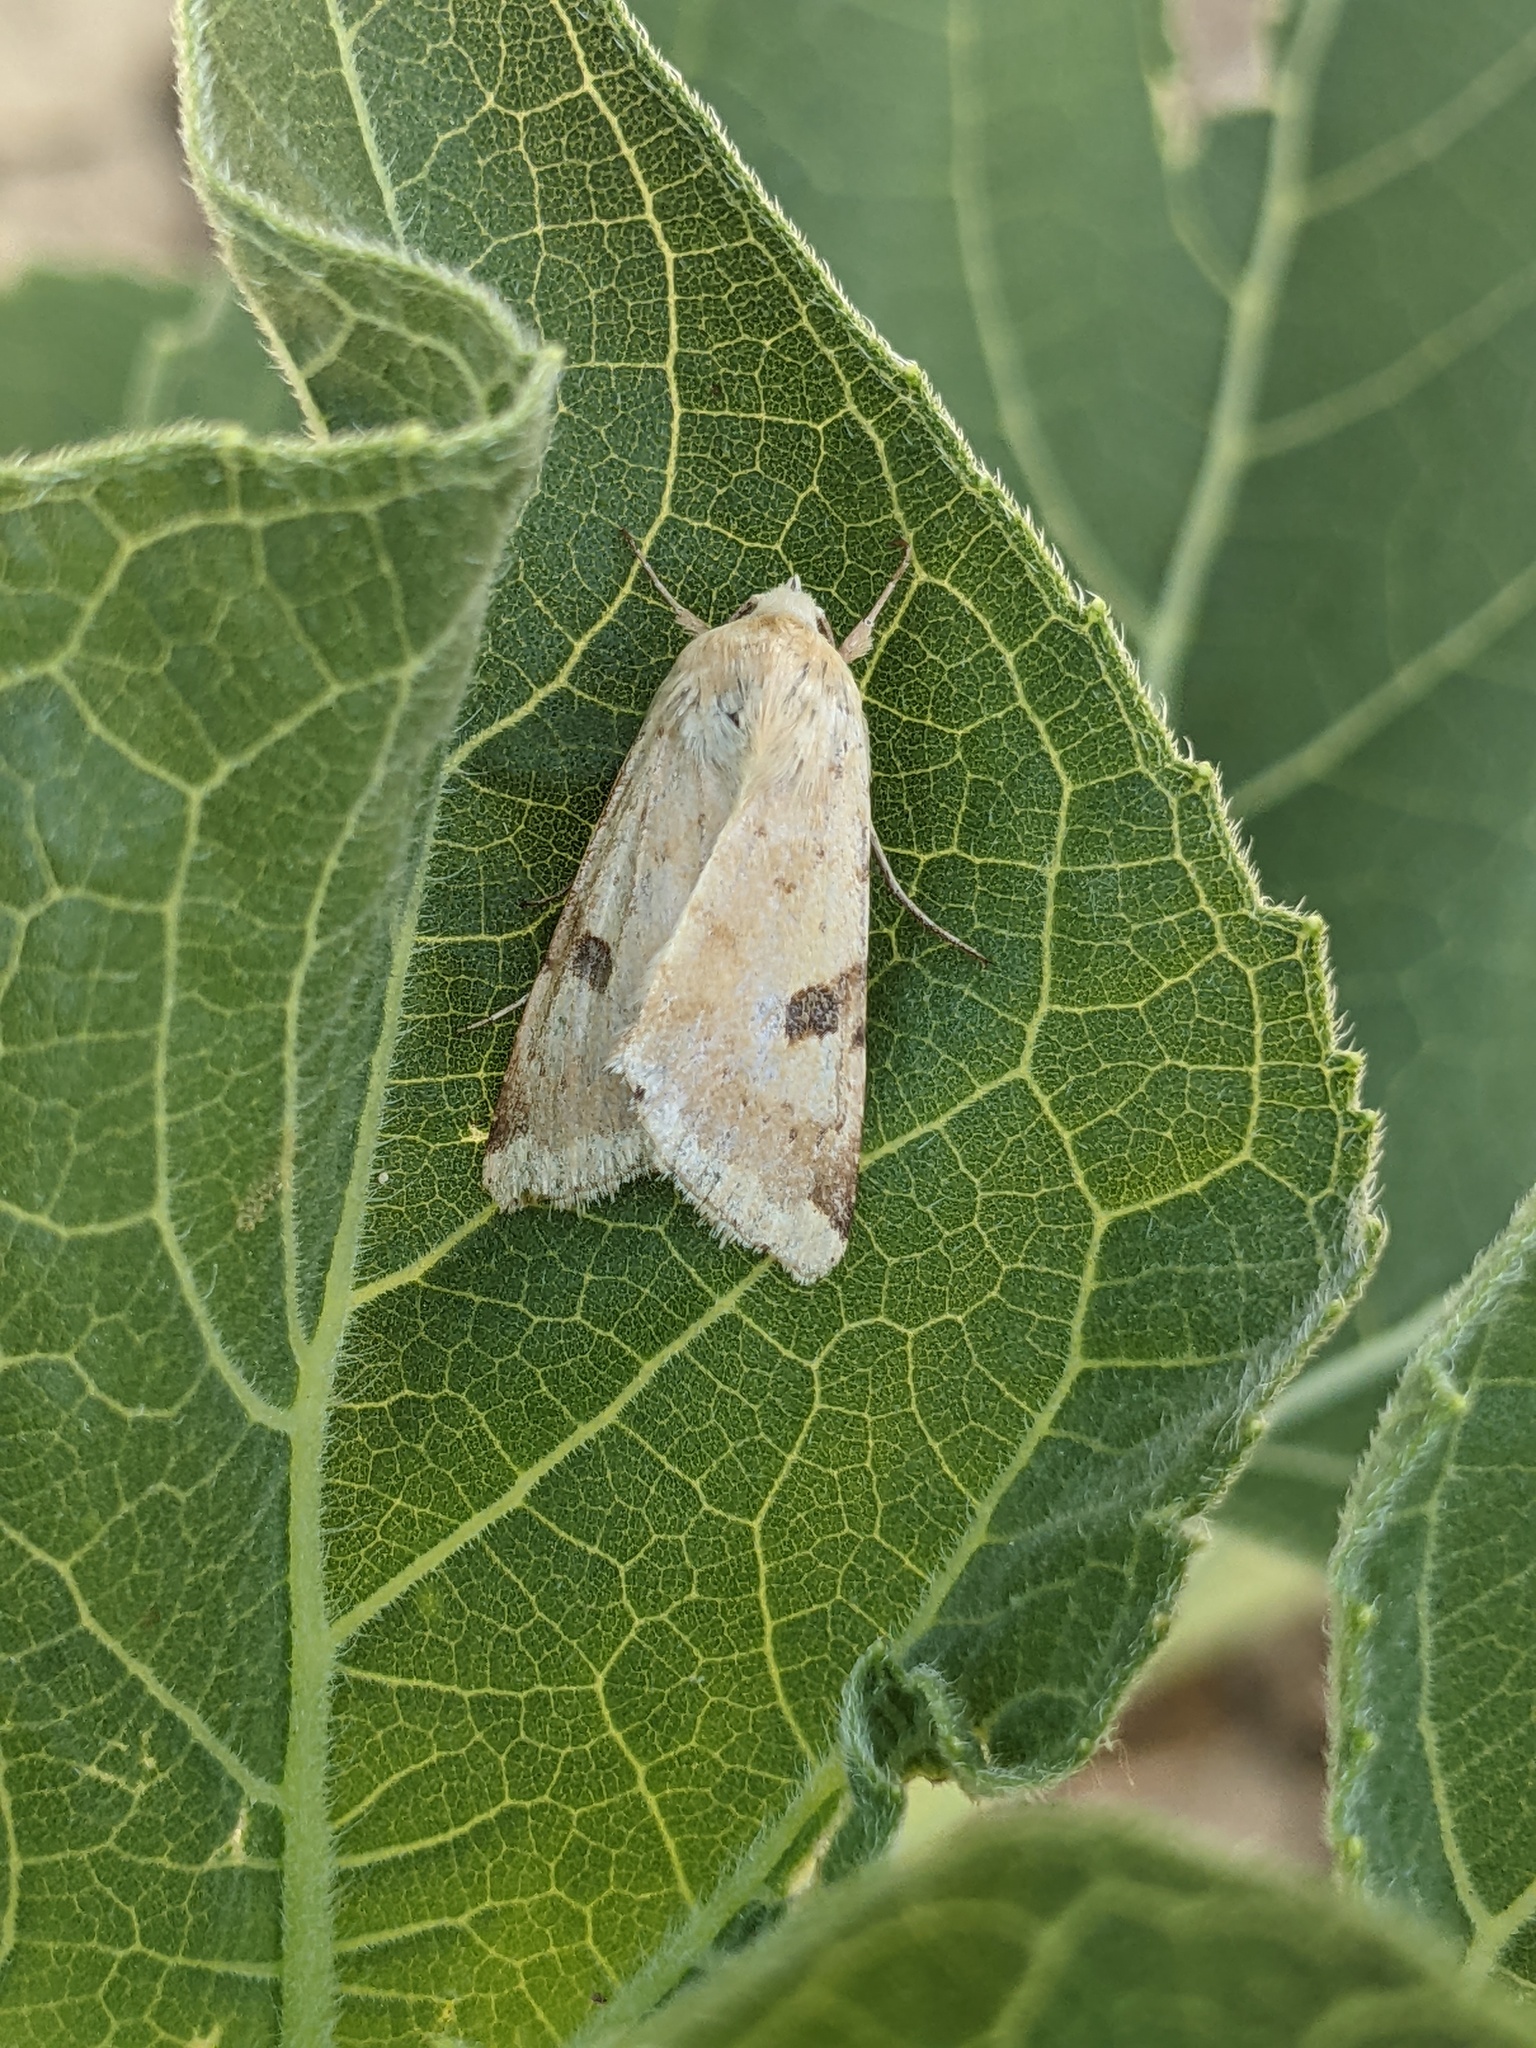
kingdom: Animalia
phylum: Arthropoda
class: Insecta
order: Lepidoptera
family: Noctuidae
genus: Heliothis
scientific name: Heliothis peltigera
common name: Bordered straw
